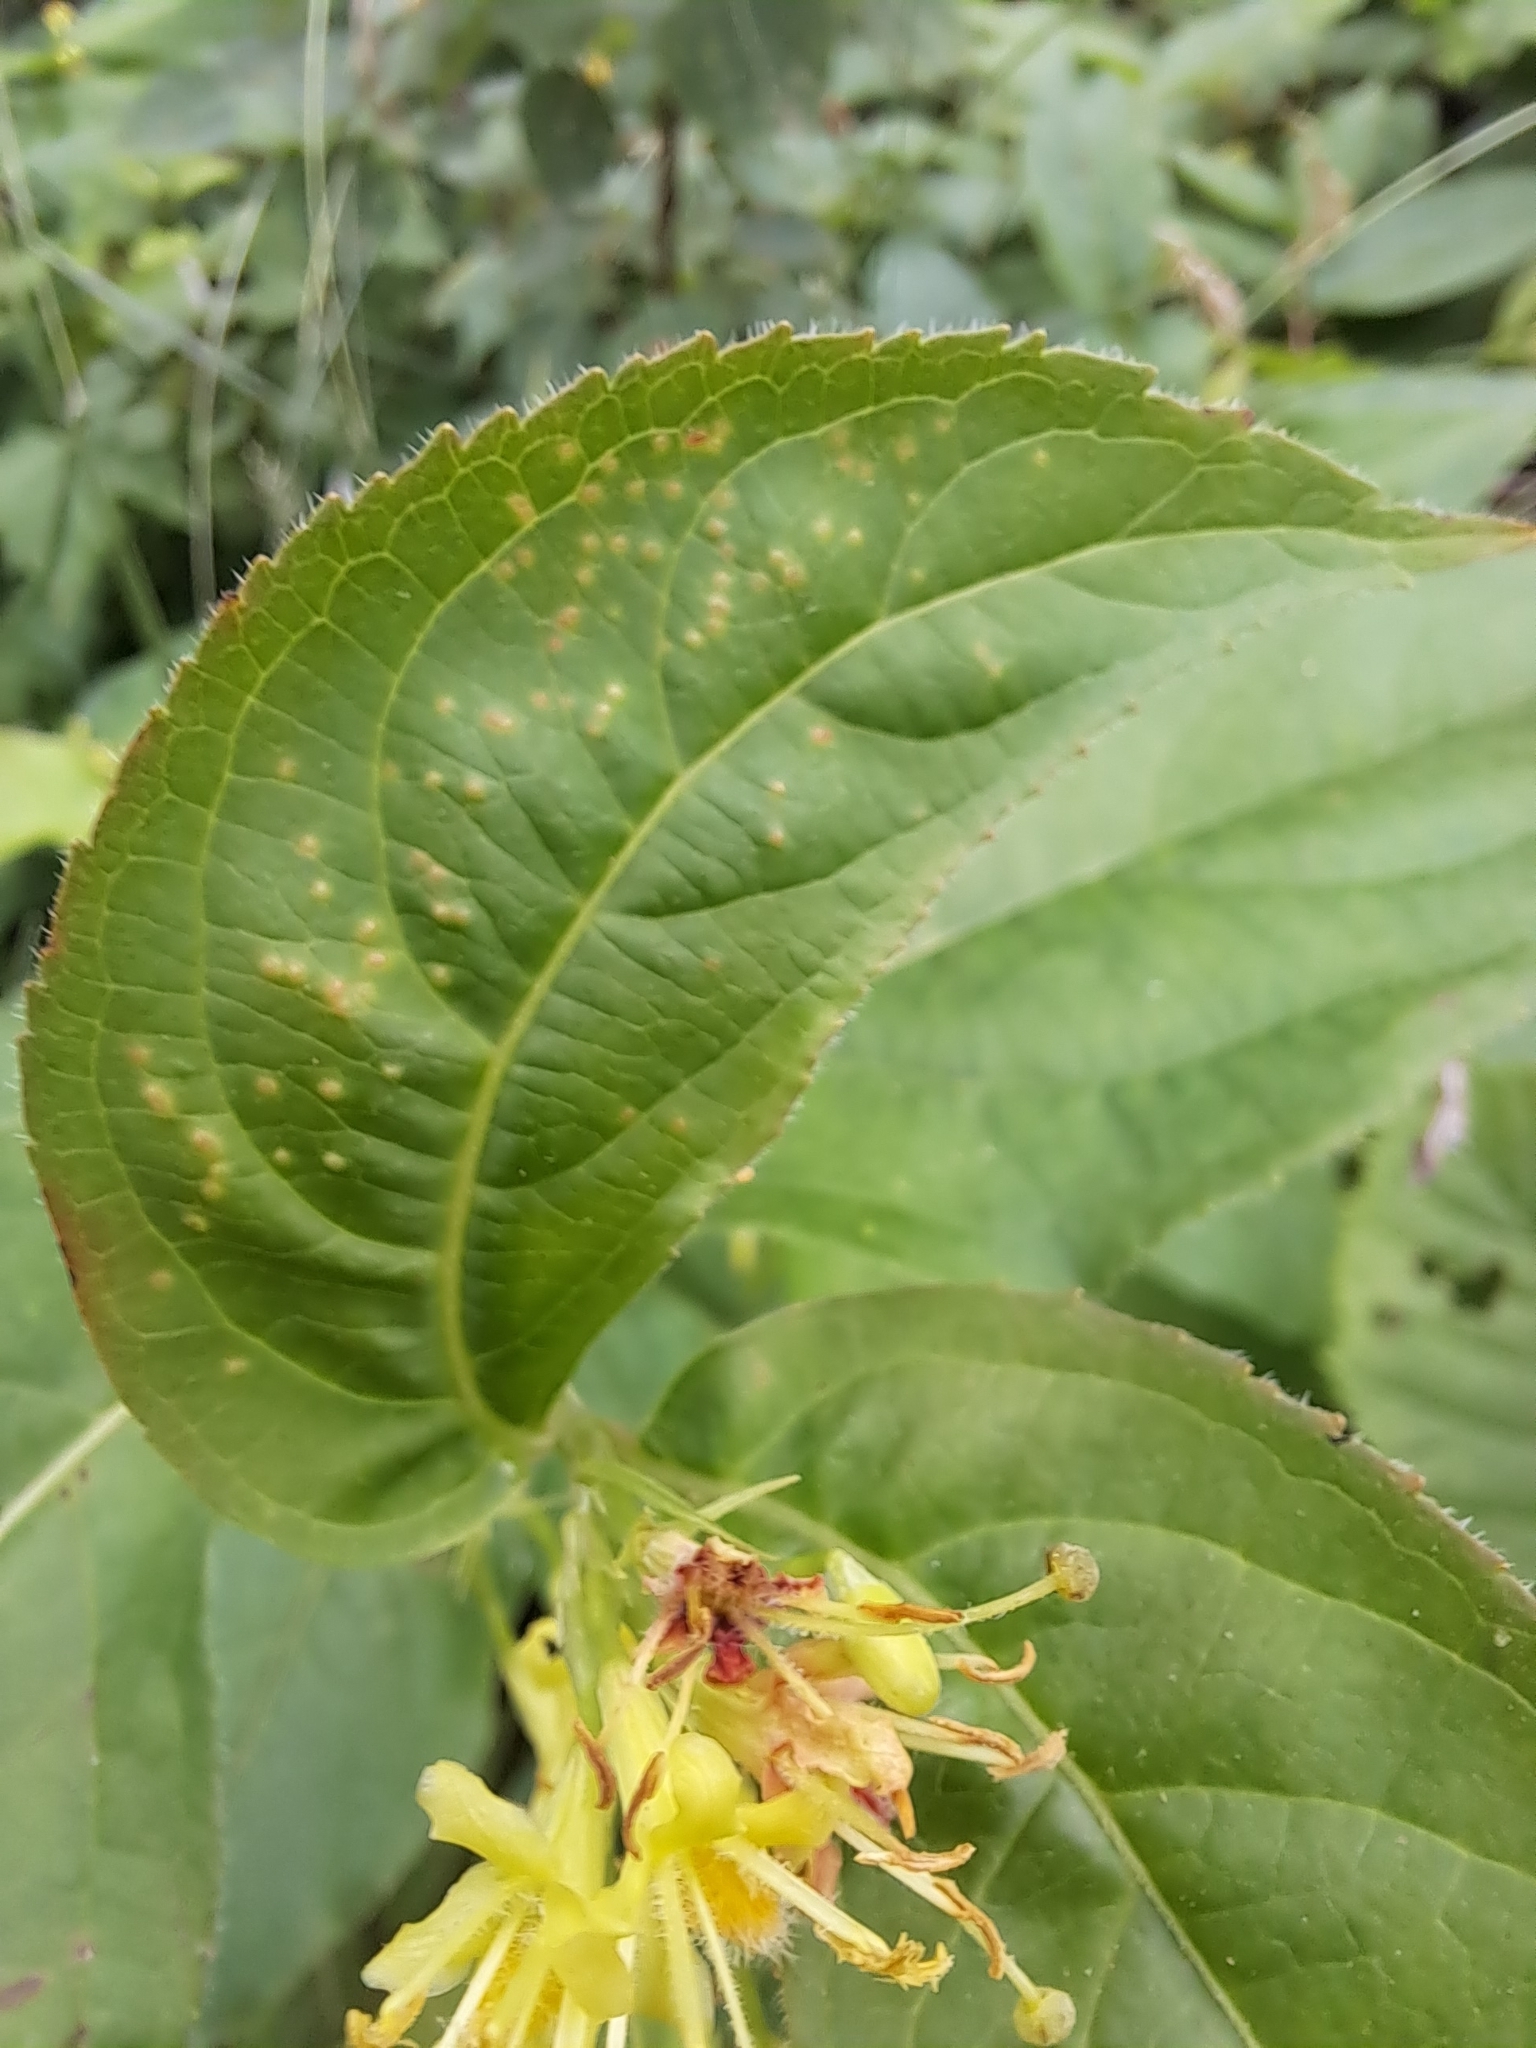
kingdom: Plantae
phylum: Tracheophyta
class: Magnoliopsida
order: Dipsacales
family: Caprifoliaceae
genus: Diervilla
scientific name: Diervilla lonicera
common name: Bush-honeysuckle
